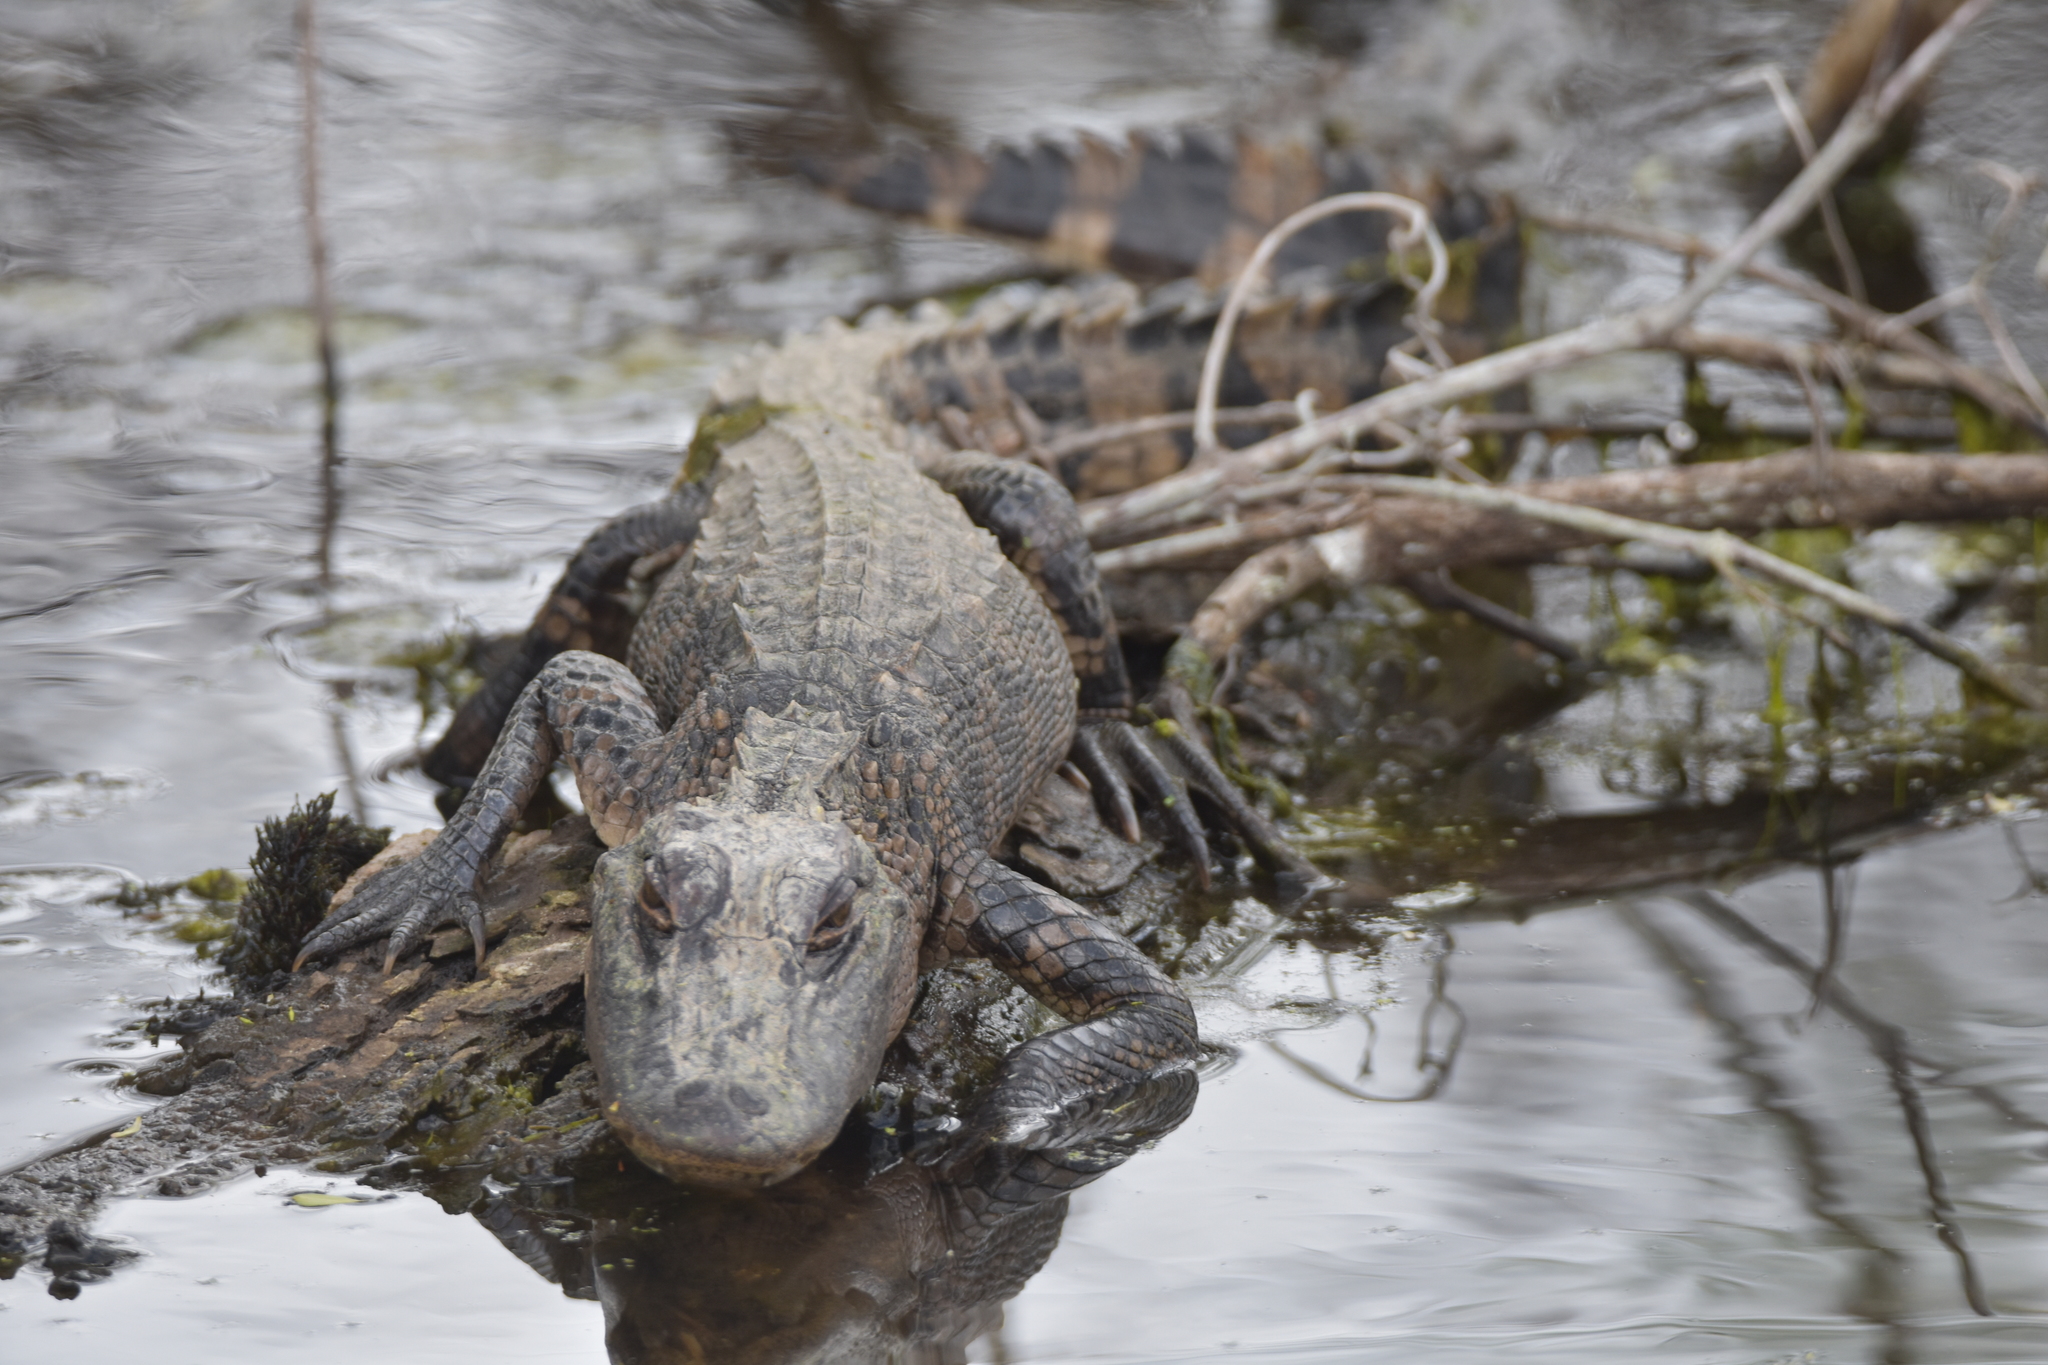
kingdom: Animalia
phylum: Chordata
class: Crocodylia
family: Alligatoridae
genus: Alligator
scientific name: Alligator mississippiensis
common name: American alligator
